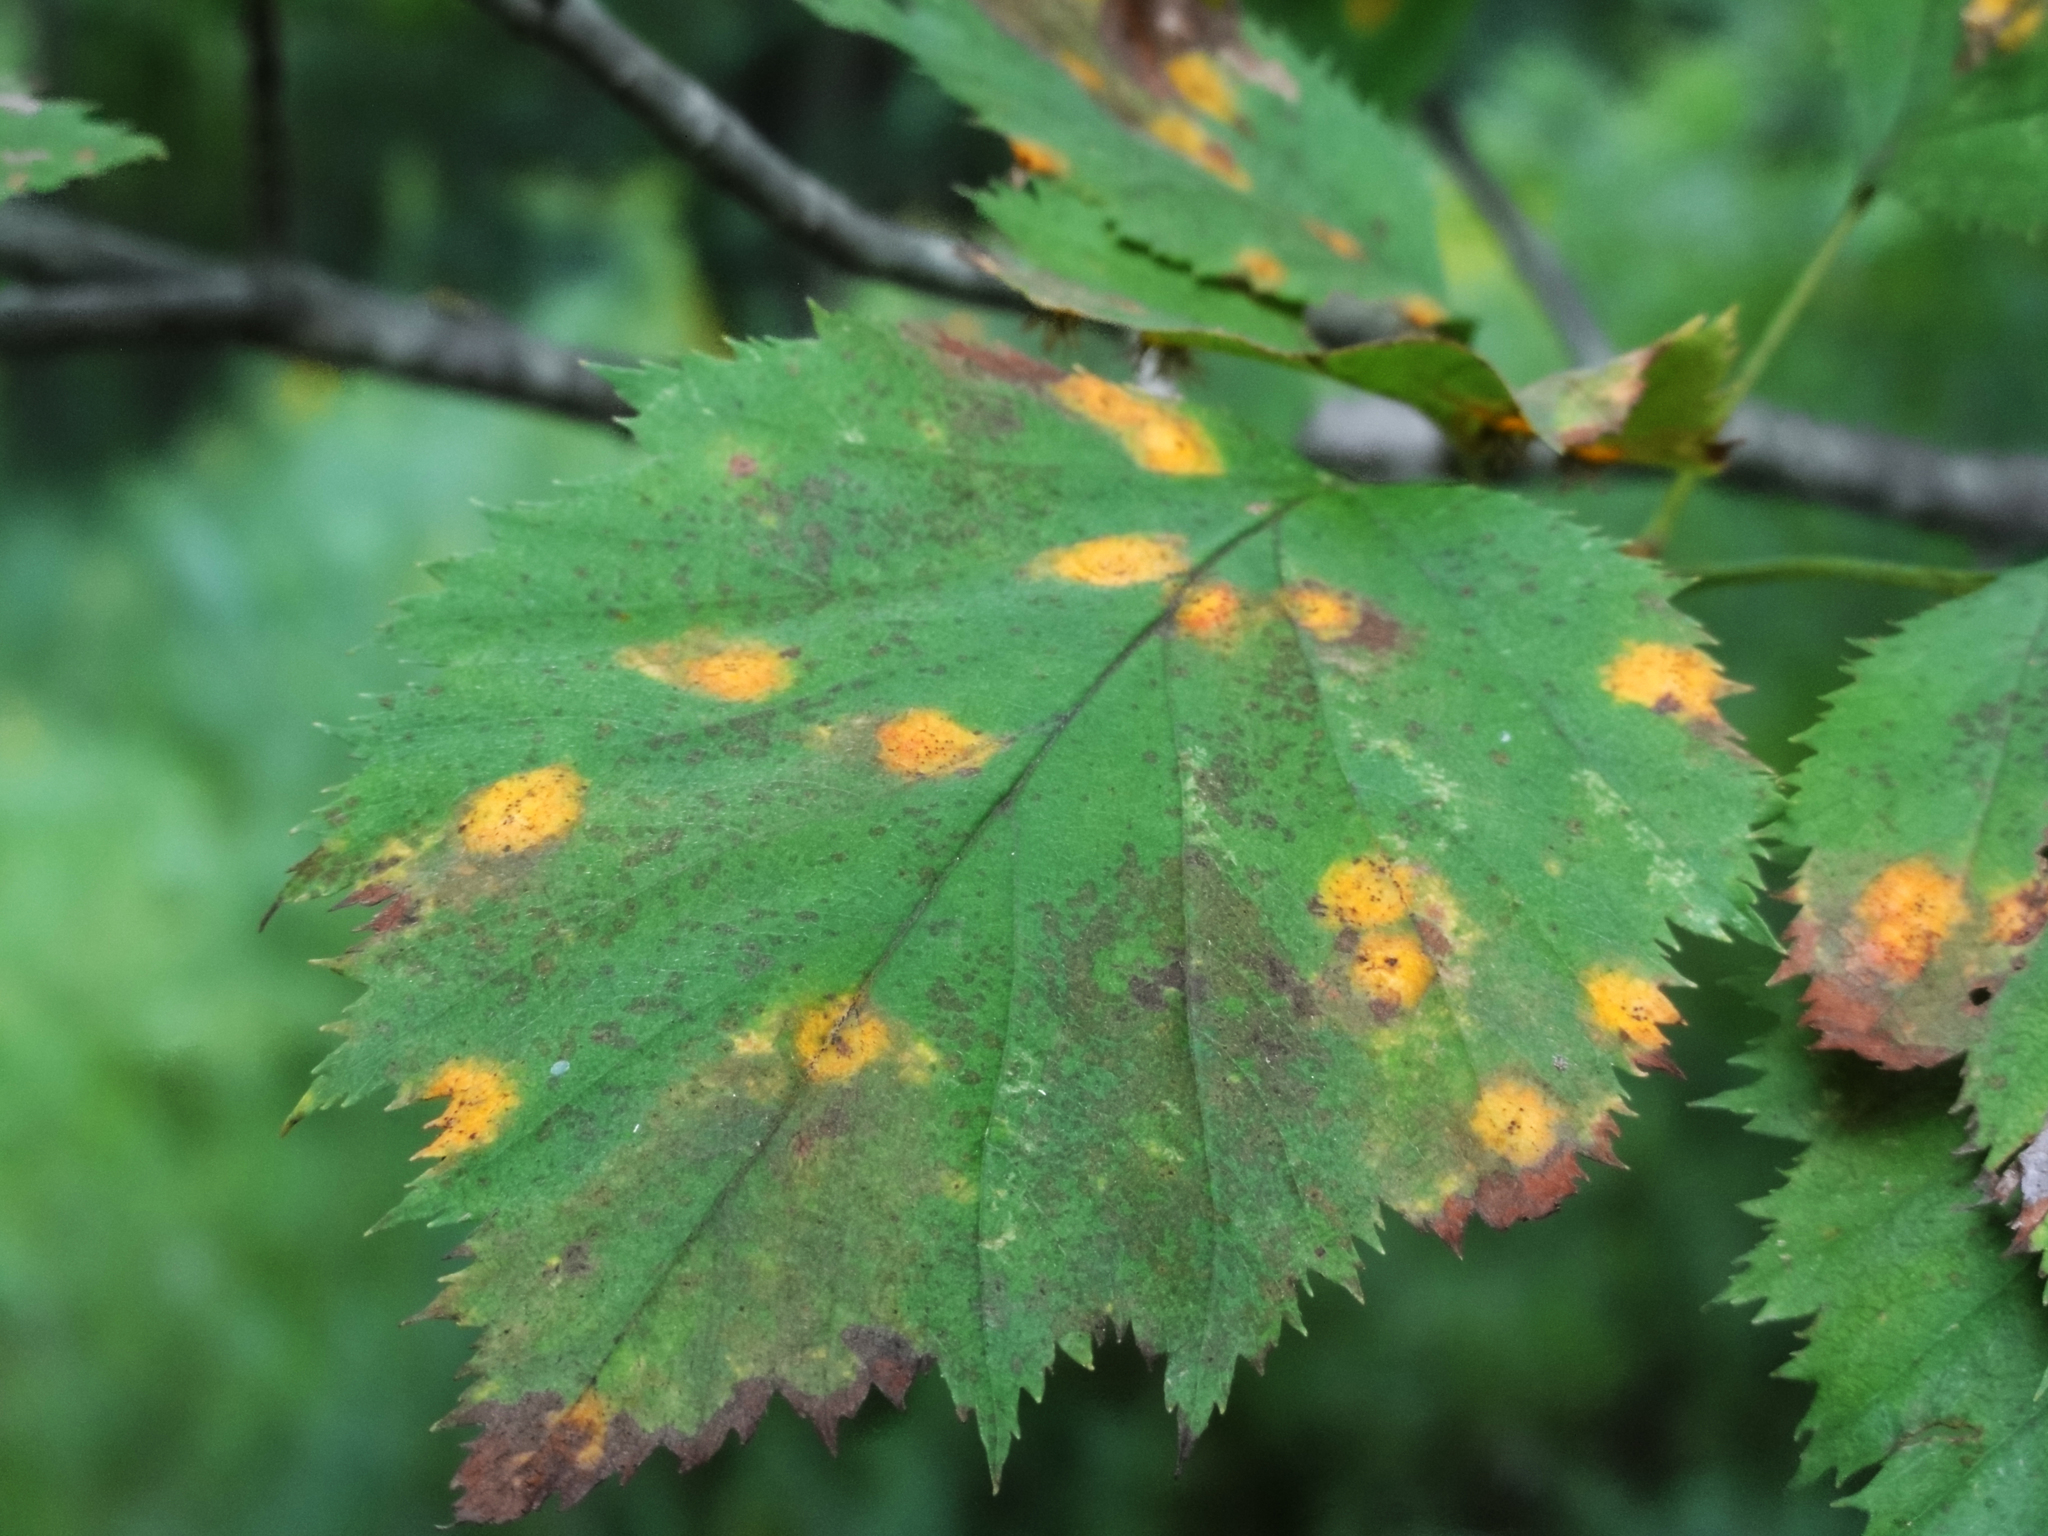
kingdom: Fungi
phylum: Basidiomycota
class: Pucciniomycetes
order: Pucciniales
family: Gymnosporangiaceae
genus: Gymnosporangium
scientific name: Gymnosporangium globosum
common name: Juniper-hawthorn rust
